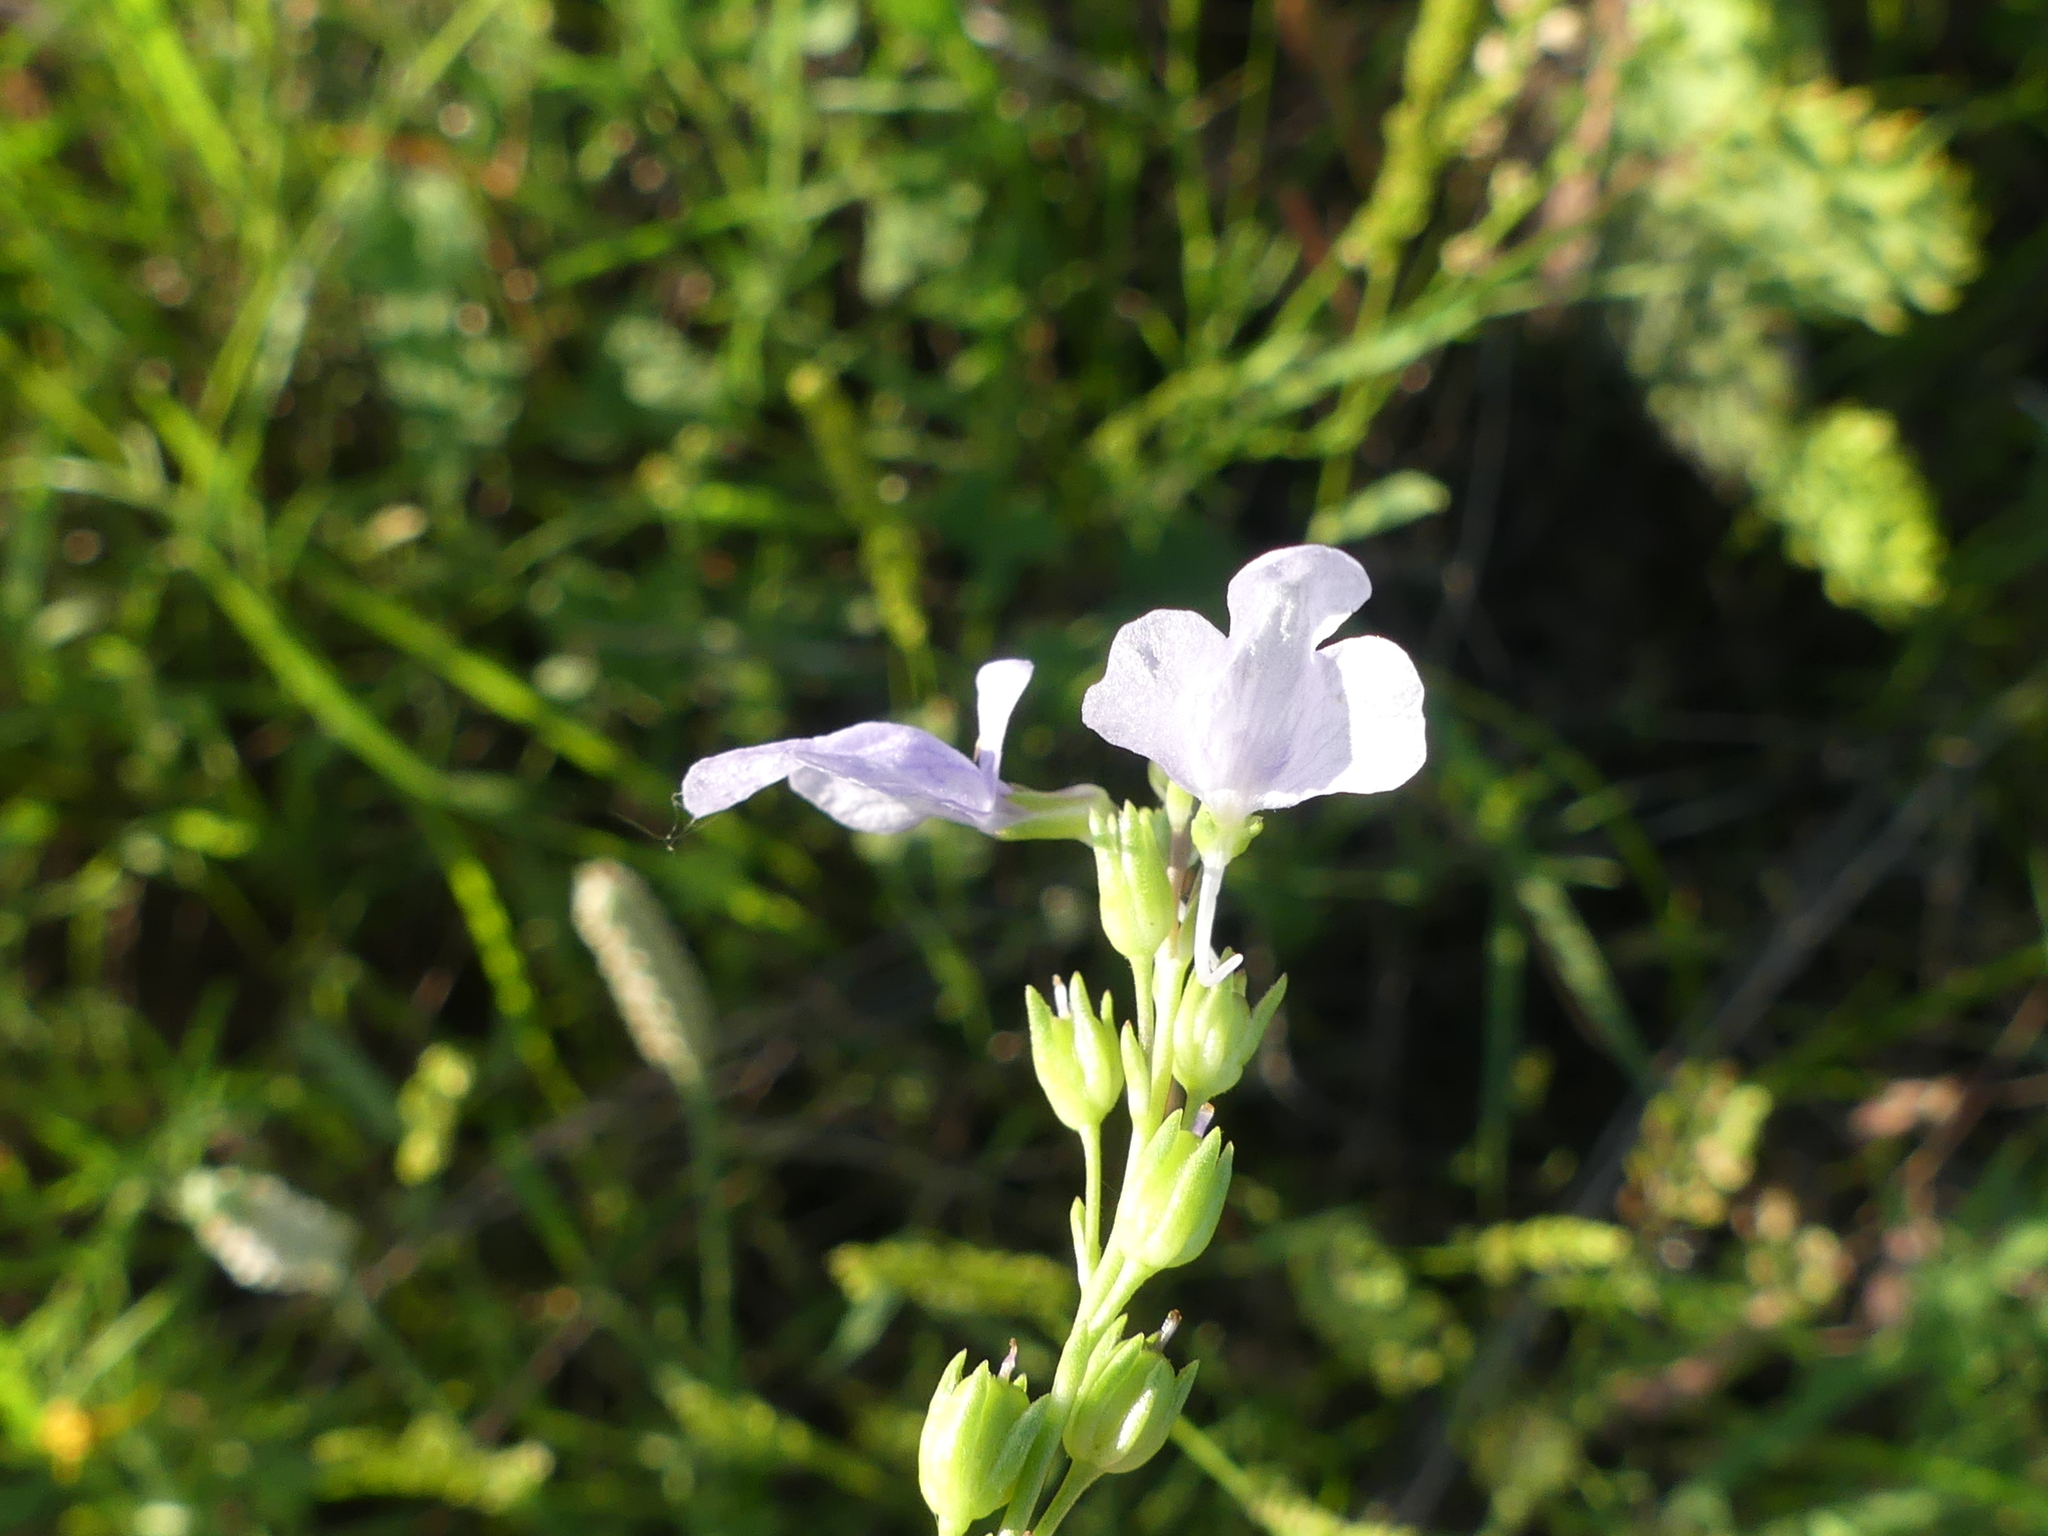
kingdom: Plantae
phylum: Tracheophyta
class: Magnoliopsida
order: Lamiales
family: Plantaginaceae
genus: Nuttallanthus
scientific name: Nuttallanthus texanus
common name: Texas toadflax
